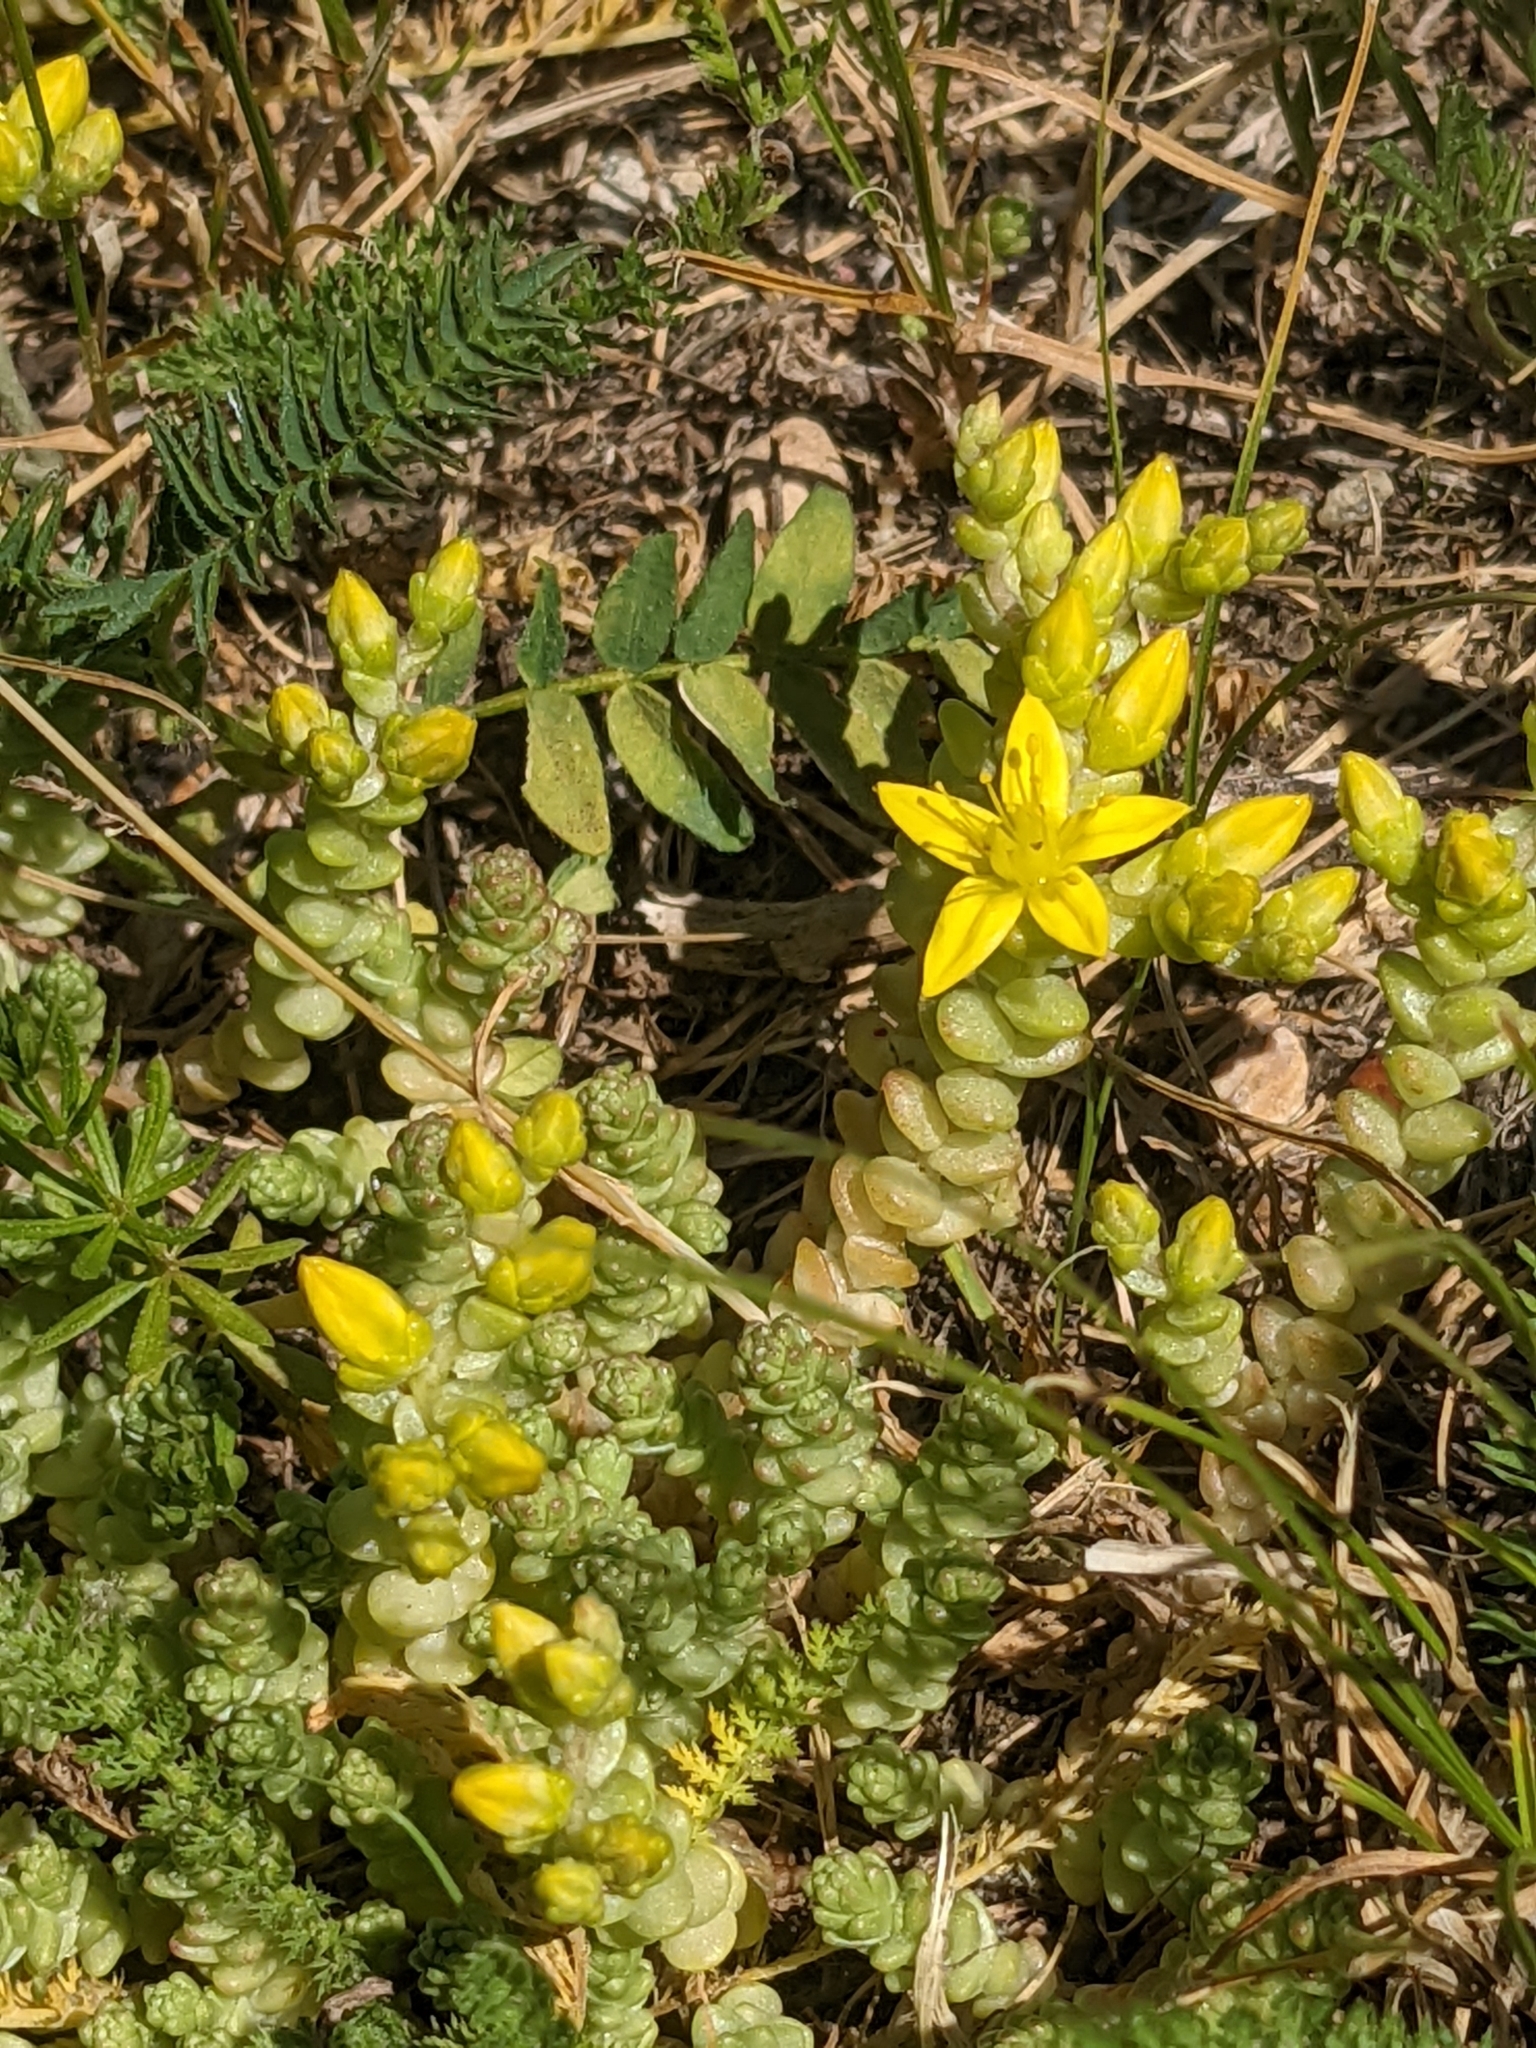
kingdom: Plantae
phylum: Tracheophyta
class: Magnoliopsida
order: Saxifragales
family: Crassulaceae
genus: Sedum
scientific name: Sedum acre
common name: Biting stonecrop
